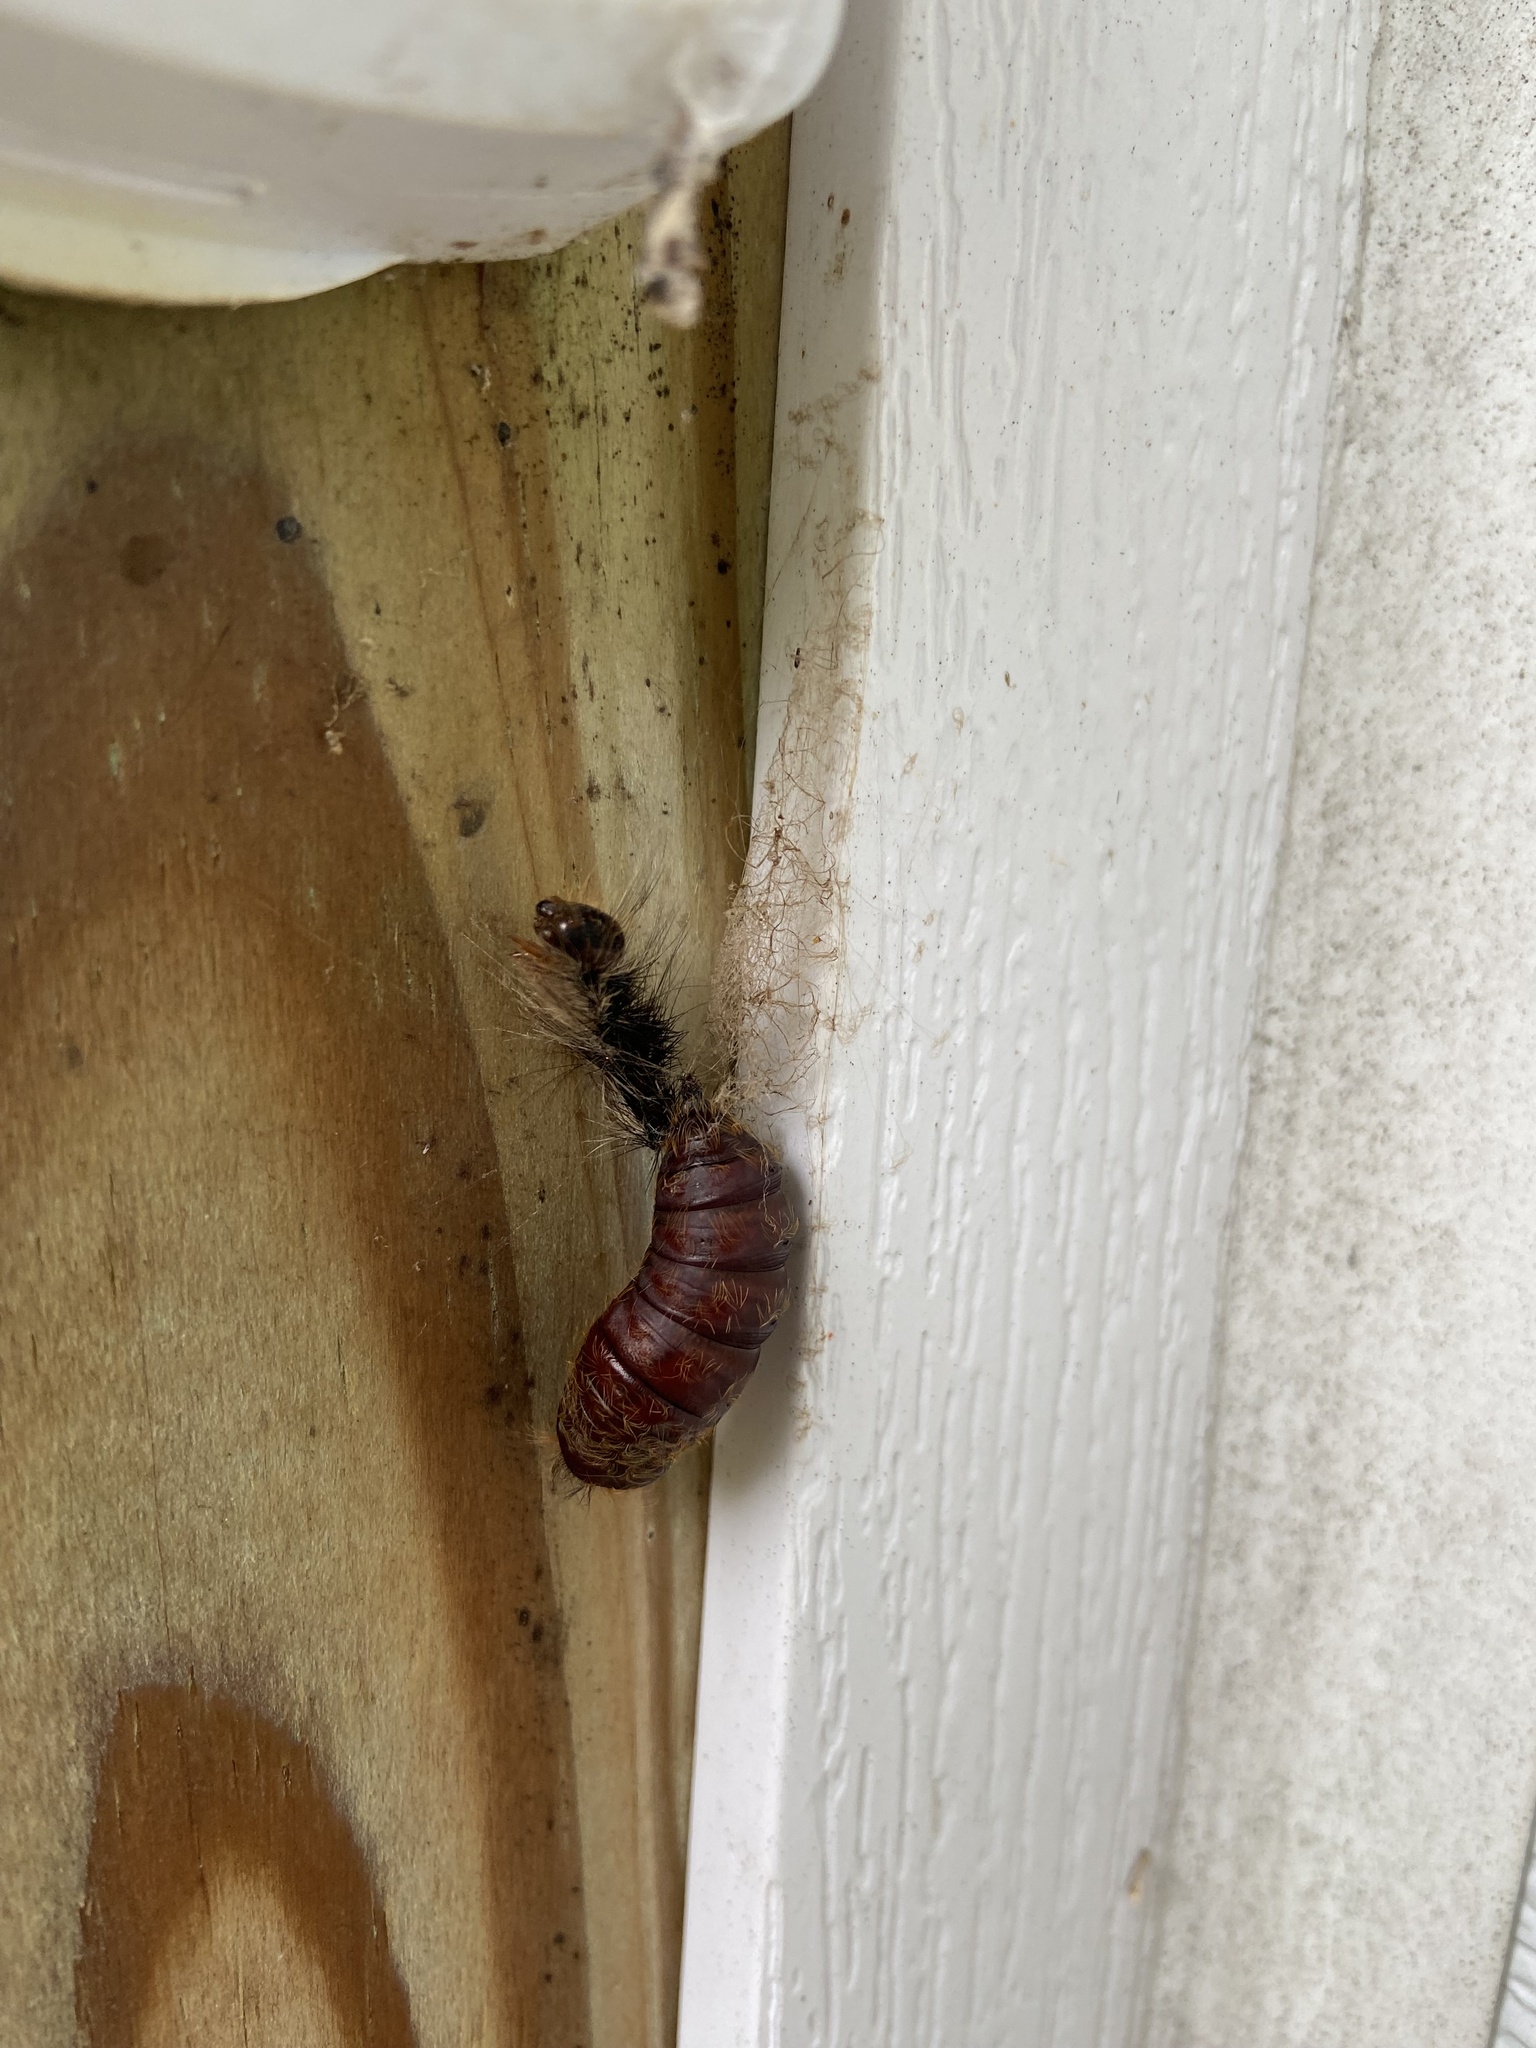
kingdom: Animalia
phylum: Arthropoda
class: Insecta
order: Lepidoptera
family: Erebidae
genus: Lymantria
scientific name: Lymantria dispar
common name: Gypsy moth
